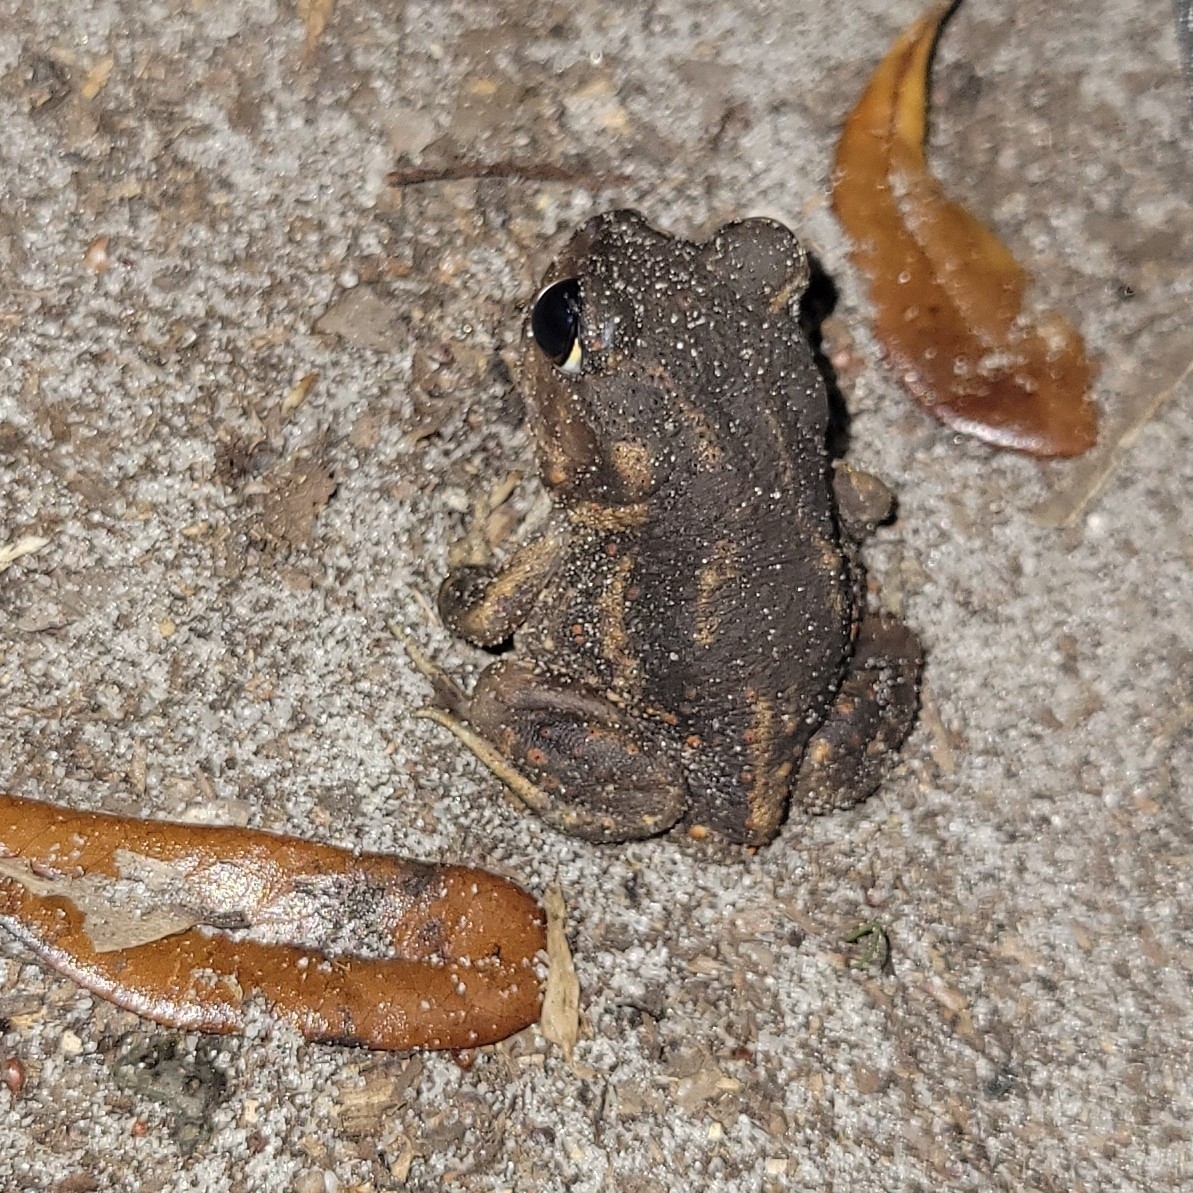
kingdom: Animalia
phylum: Chordata
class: Amphibia
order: Anura
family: Scaphiopodidae
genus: Scaphiopus
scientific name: Scaphiopus holbrookii
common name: Eastern spadefoot toad
